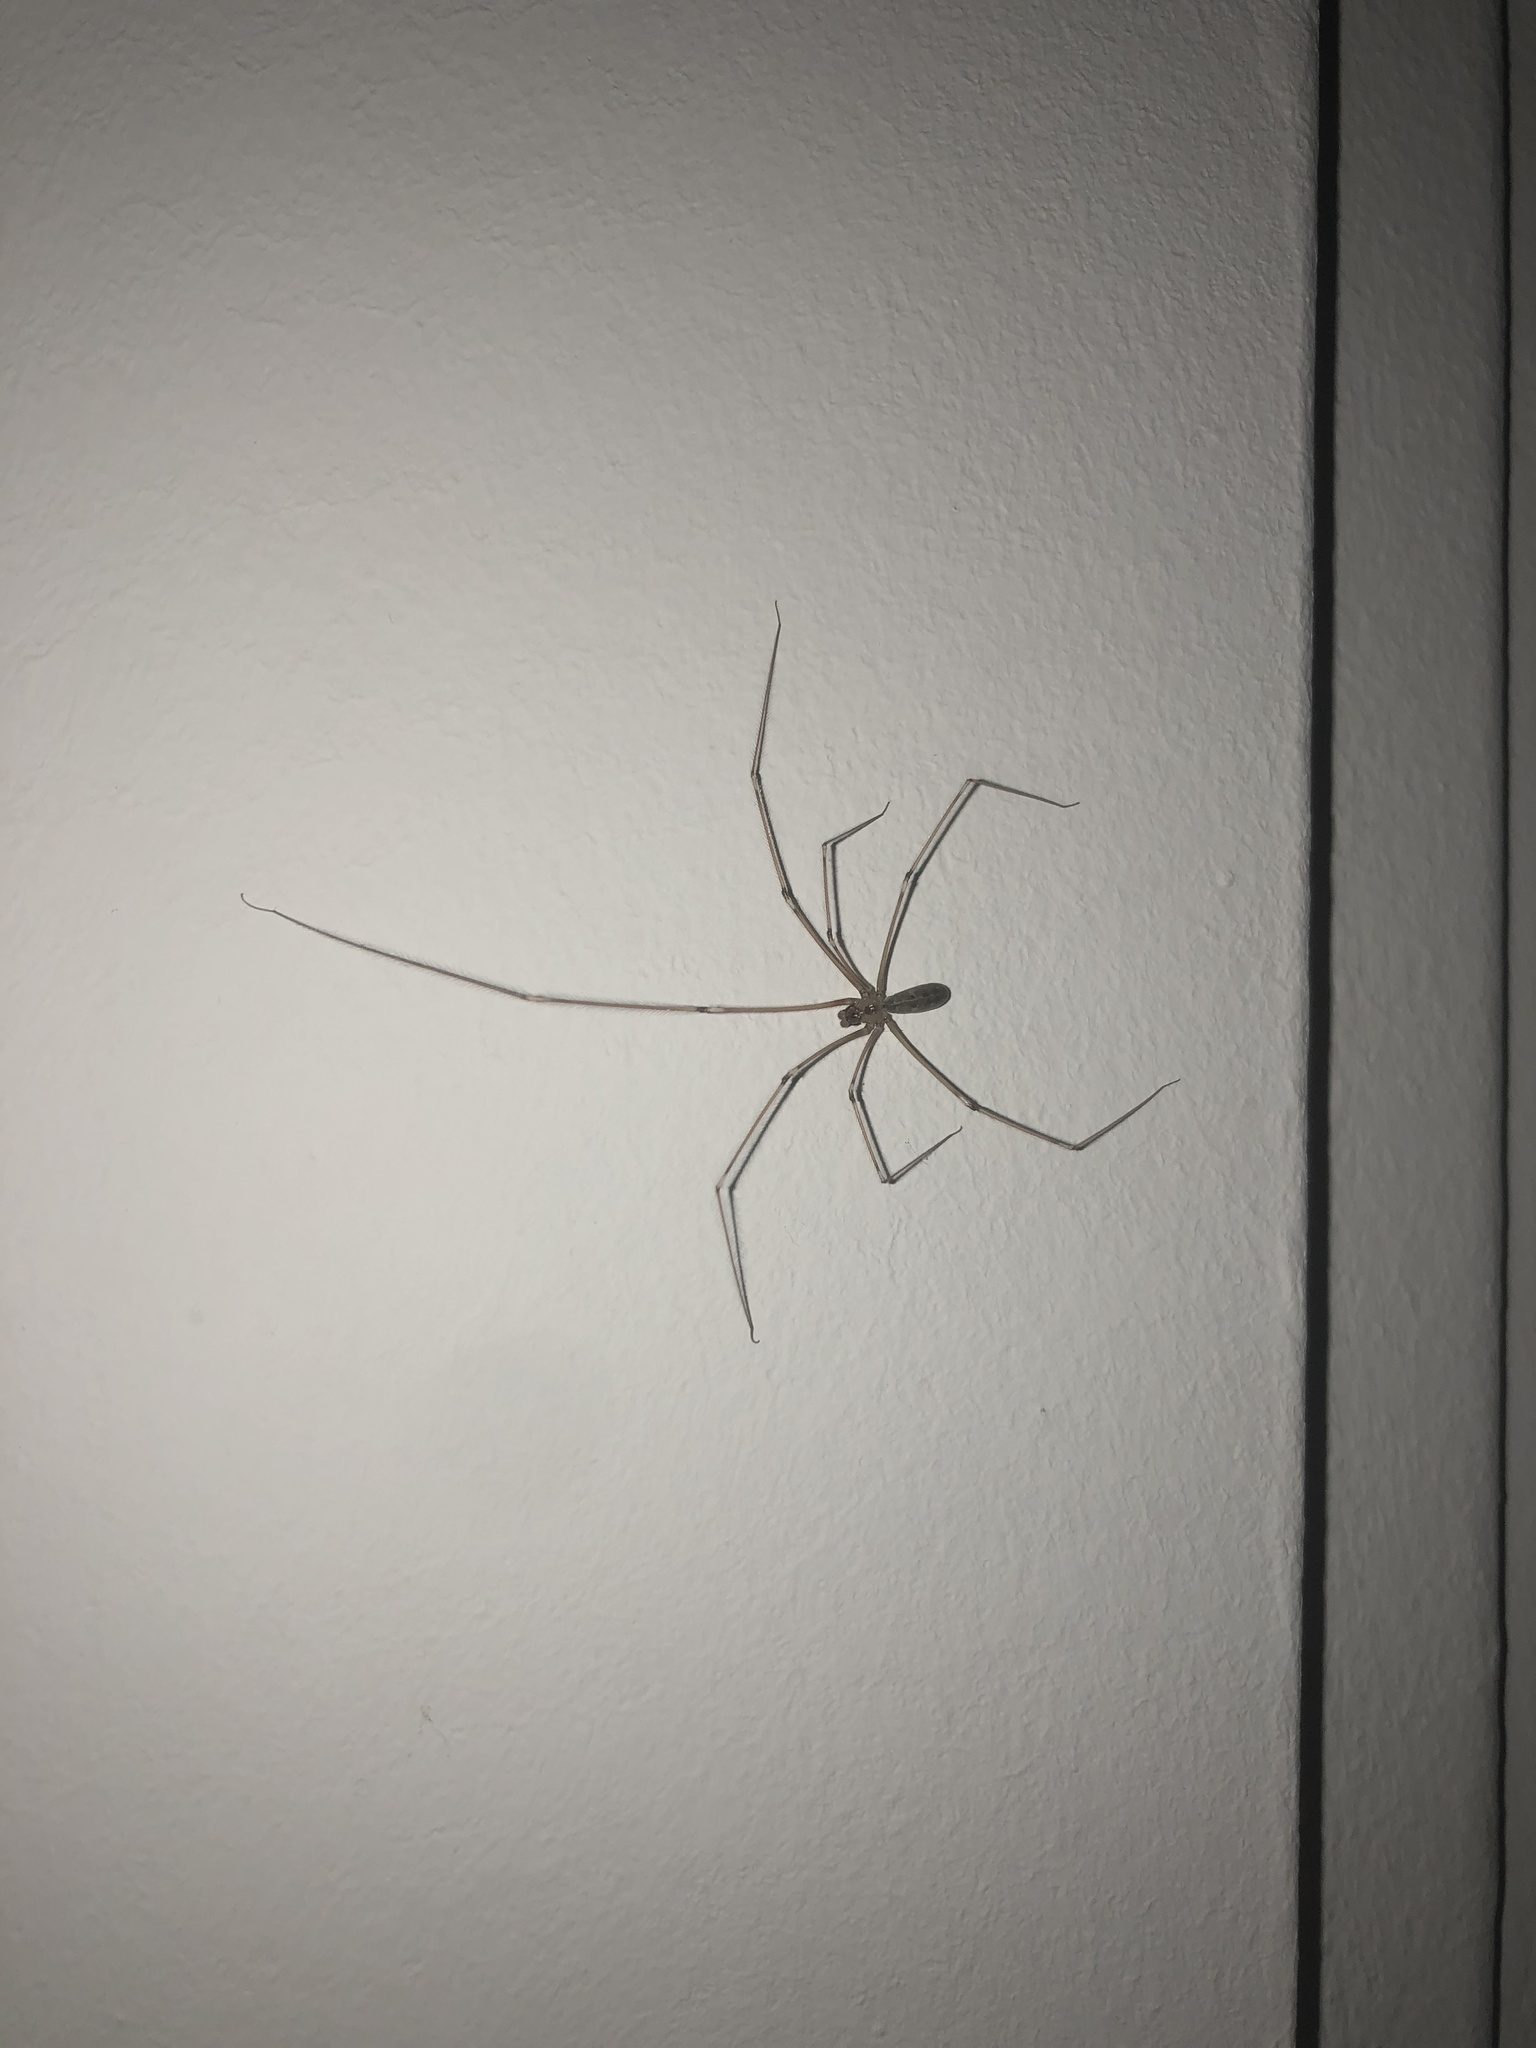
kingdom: Animalia
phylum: Arthropoda
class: Arachnida
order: Araneae
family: Pholcidae
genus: Pholcus
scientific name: Pholcus phalangioides
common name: Longbodied cellar spider
